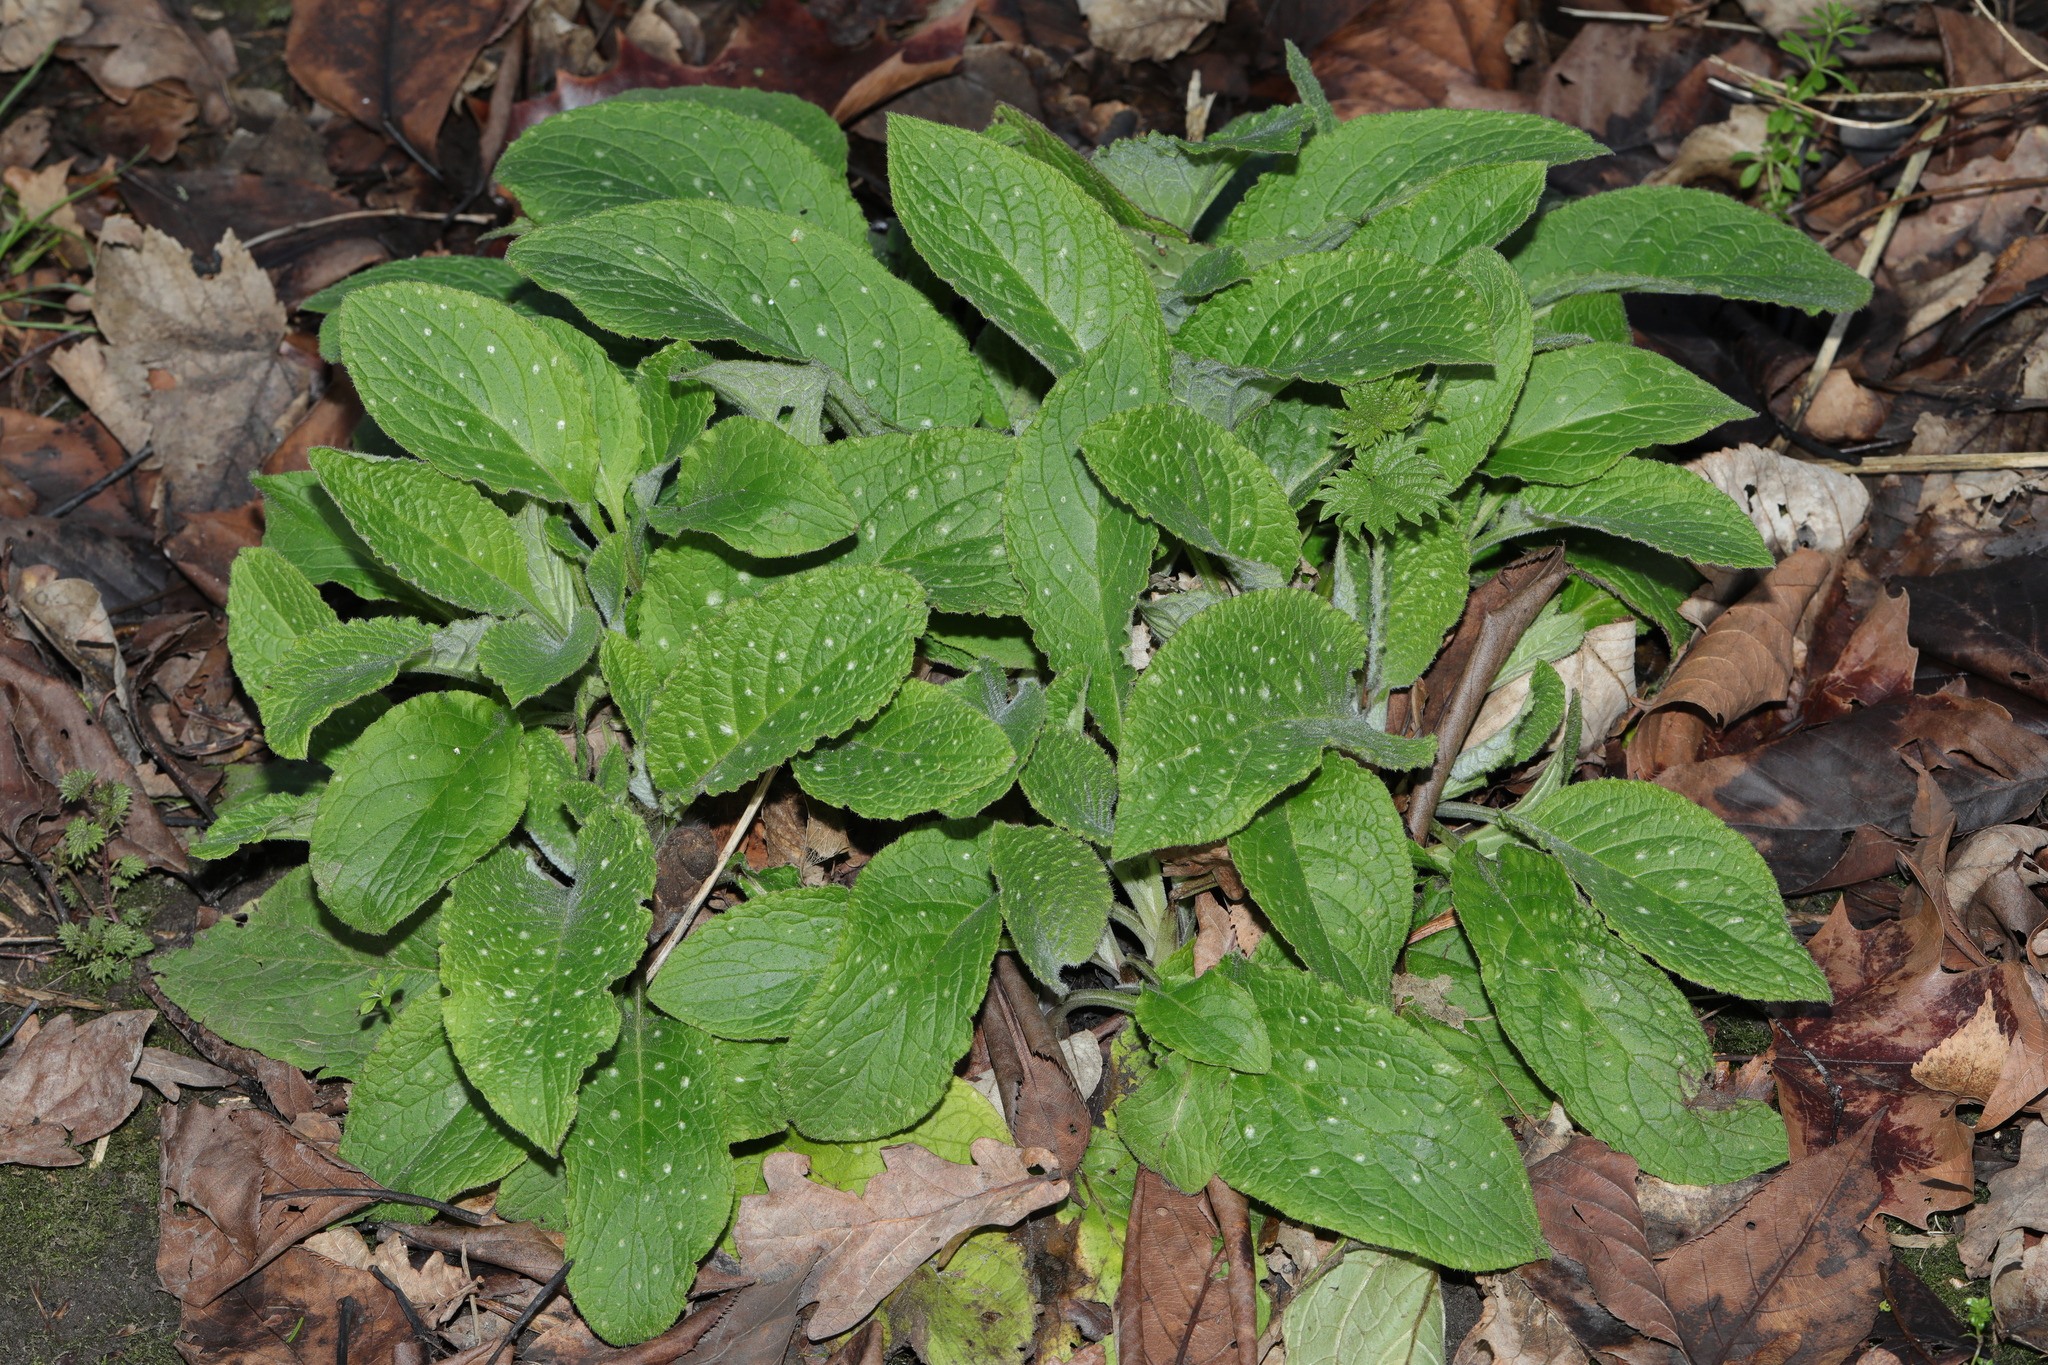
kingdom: Plantae
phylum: Tracheophyta
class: Magnoliopsida
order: Boraginales
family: Boraginaceae
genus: Pentaglottis
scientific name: Pentaglottis sempervirens
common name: Green alkanet
